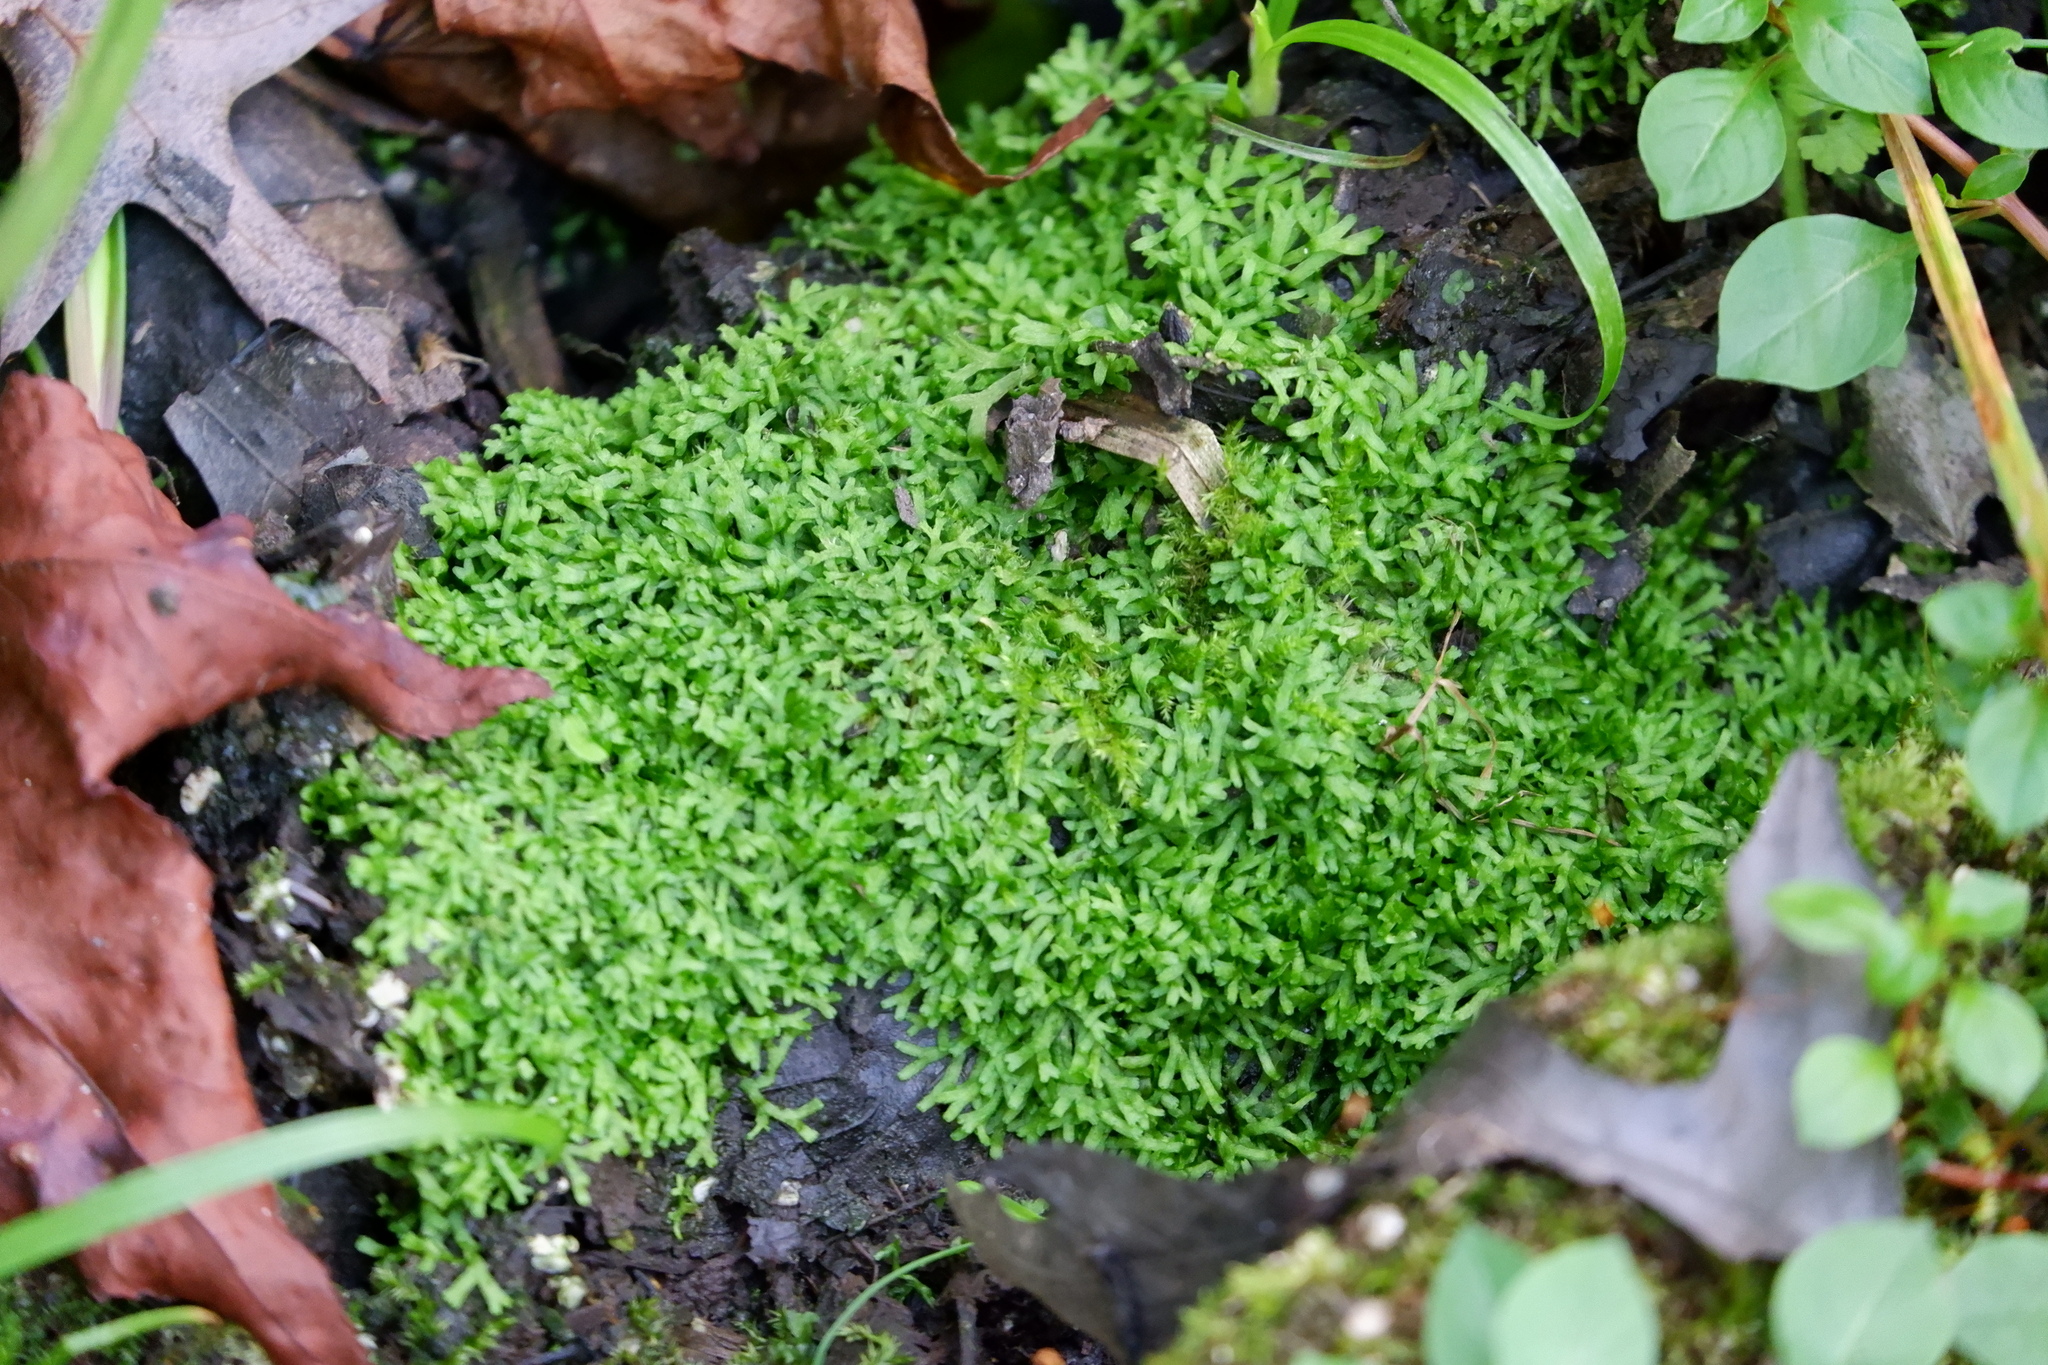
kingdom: Plantae
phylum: Marchantiophyta
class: Marchantiopsida
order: Marchantiales
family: Ricciaceae
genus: Riccia
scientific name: Riccia fluitans
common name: Floating crystalwort
